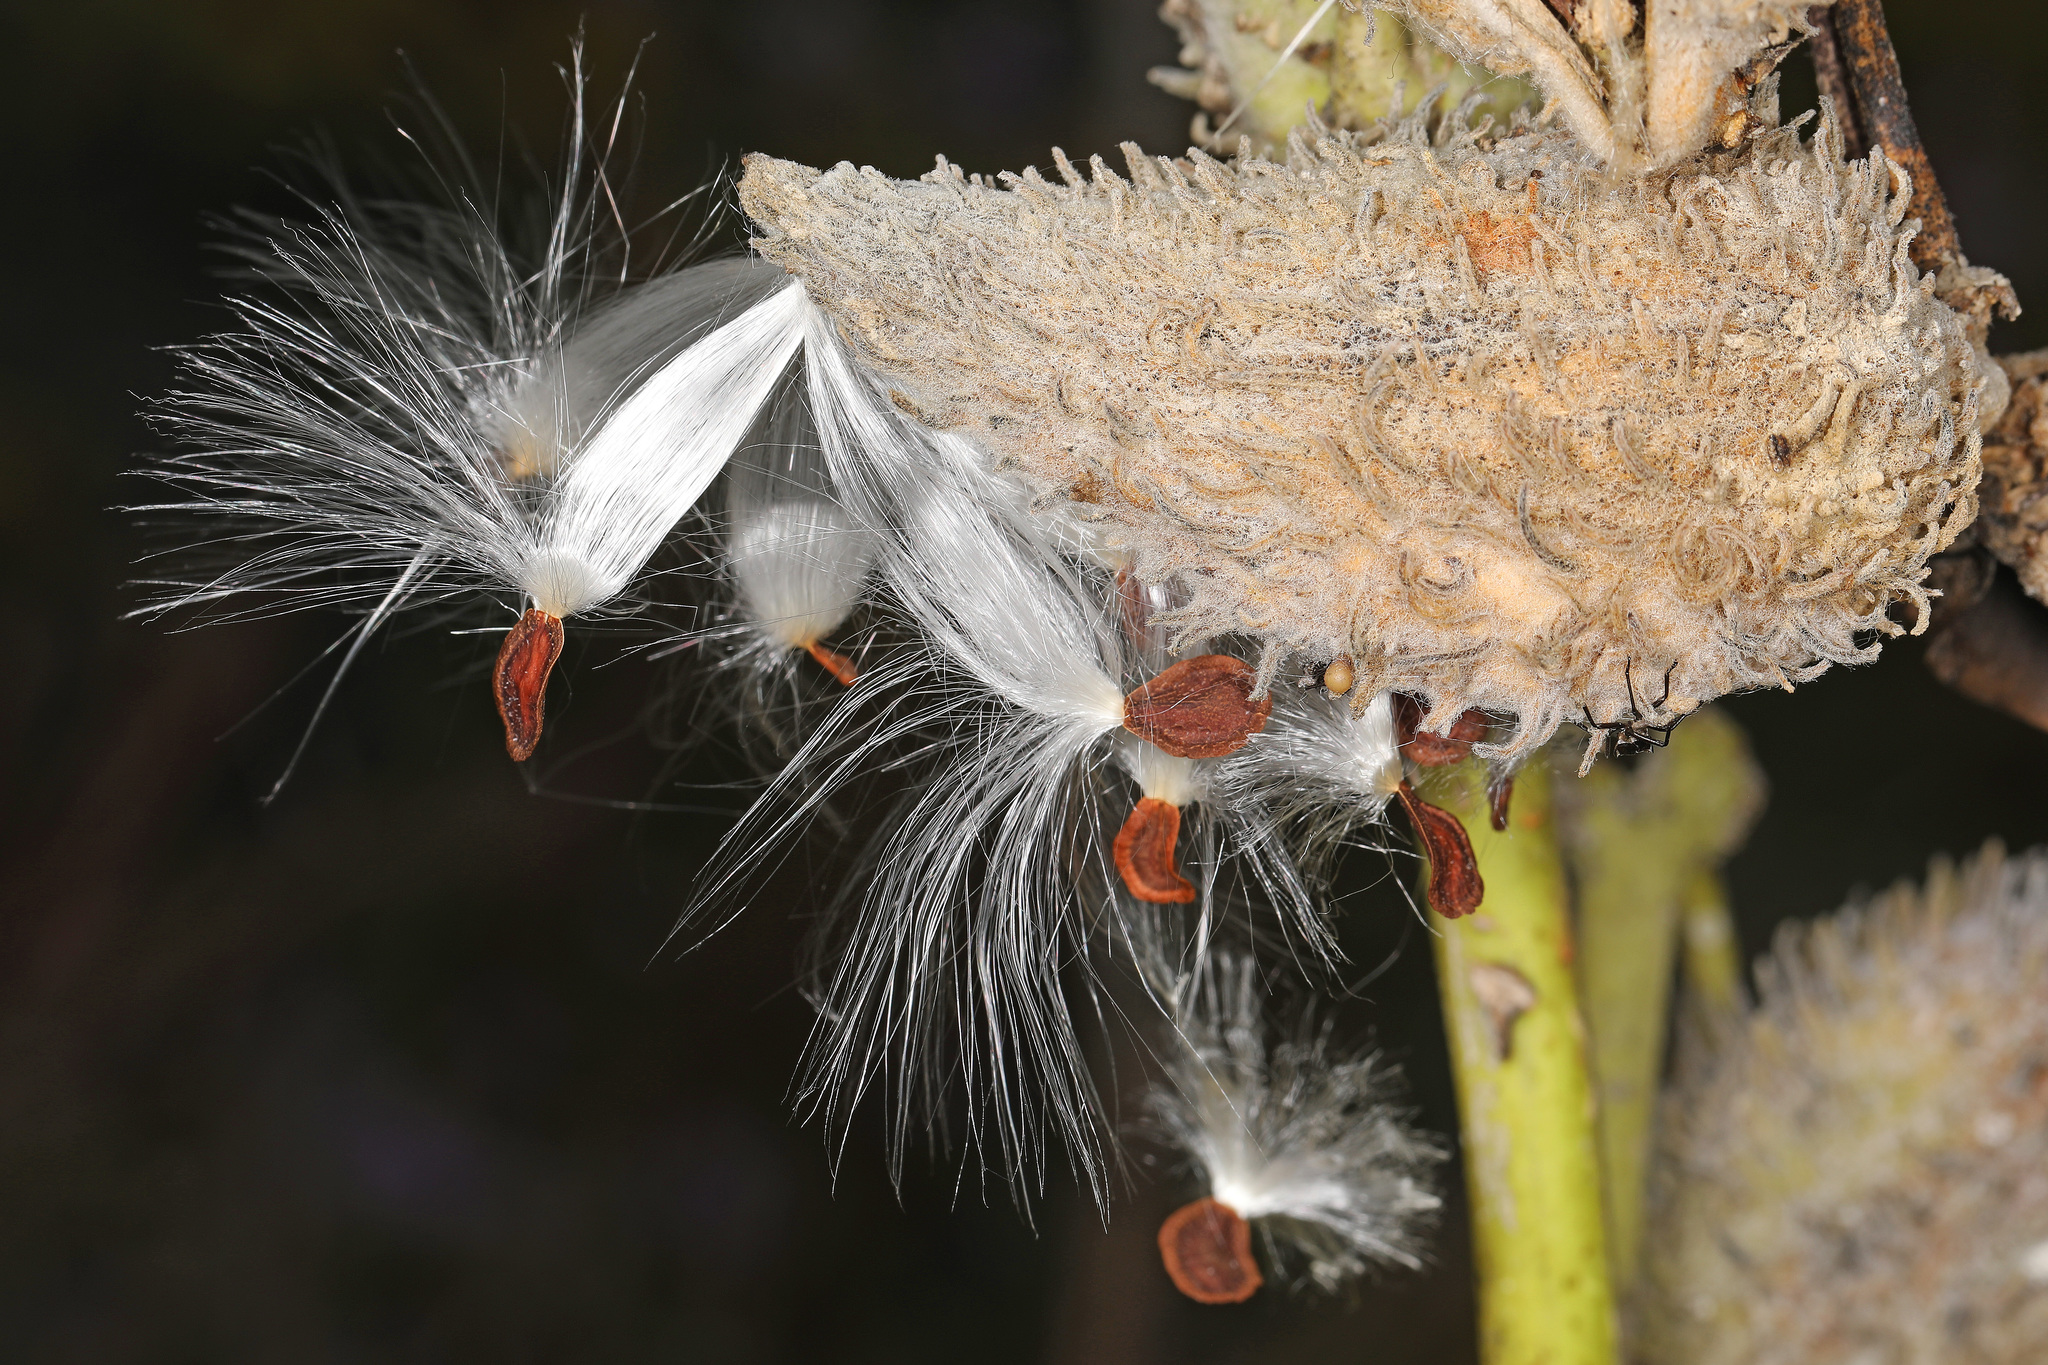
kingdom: Plantae
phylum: Tracheophyta
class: Magnoliopsida
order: Gentianales
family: Apocynaceae
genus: Asclepias
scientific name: Asclepias syriaca
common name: Common milkweed
